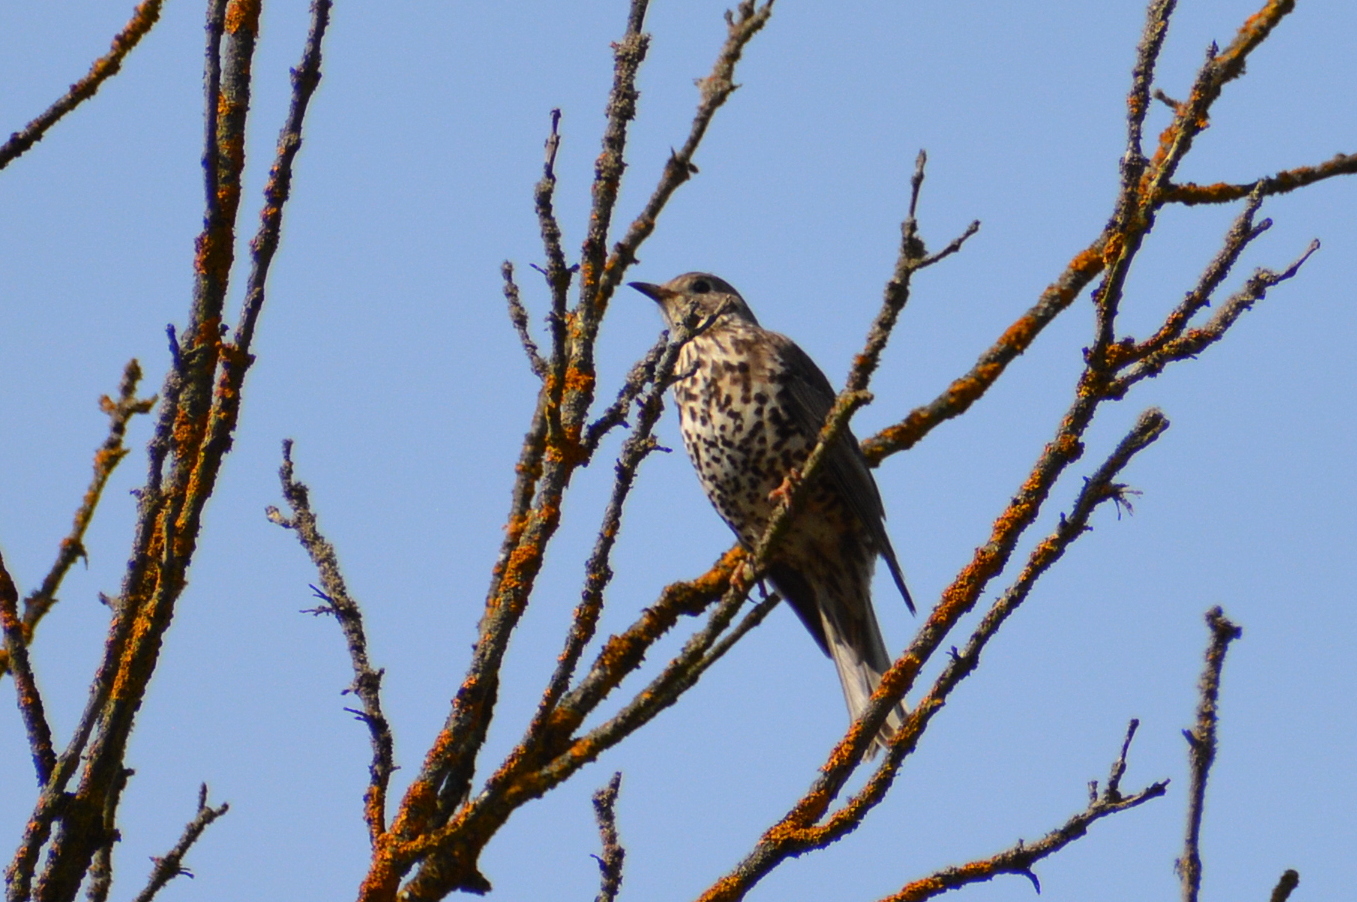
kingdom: Animalia
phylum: Chordata
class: Aves
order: Passeriformes
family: Turdidae
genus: Turdus
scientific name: Turdus viscivorus
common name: Mistle thrush
